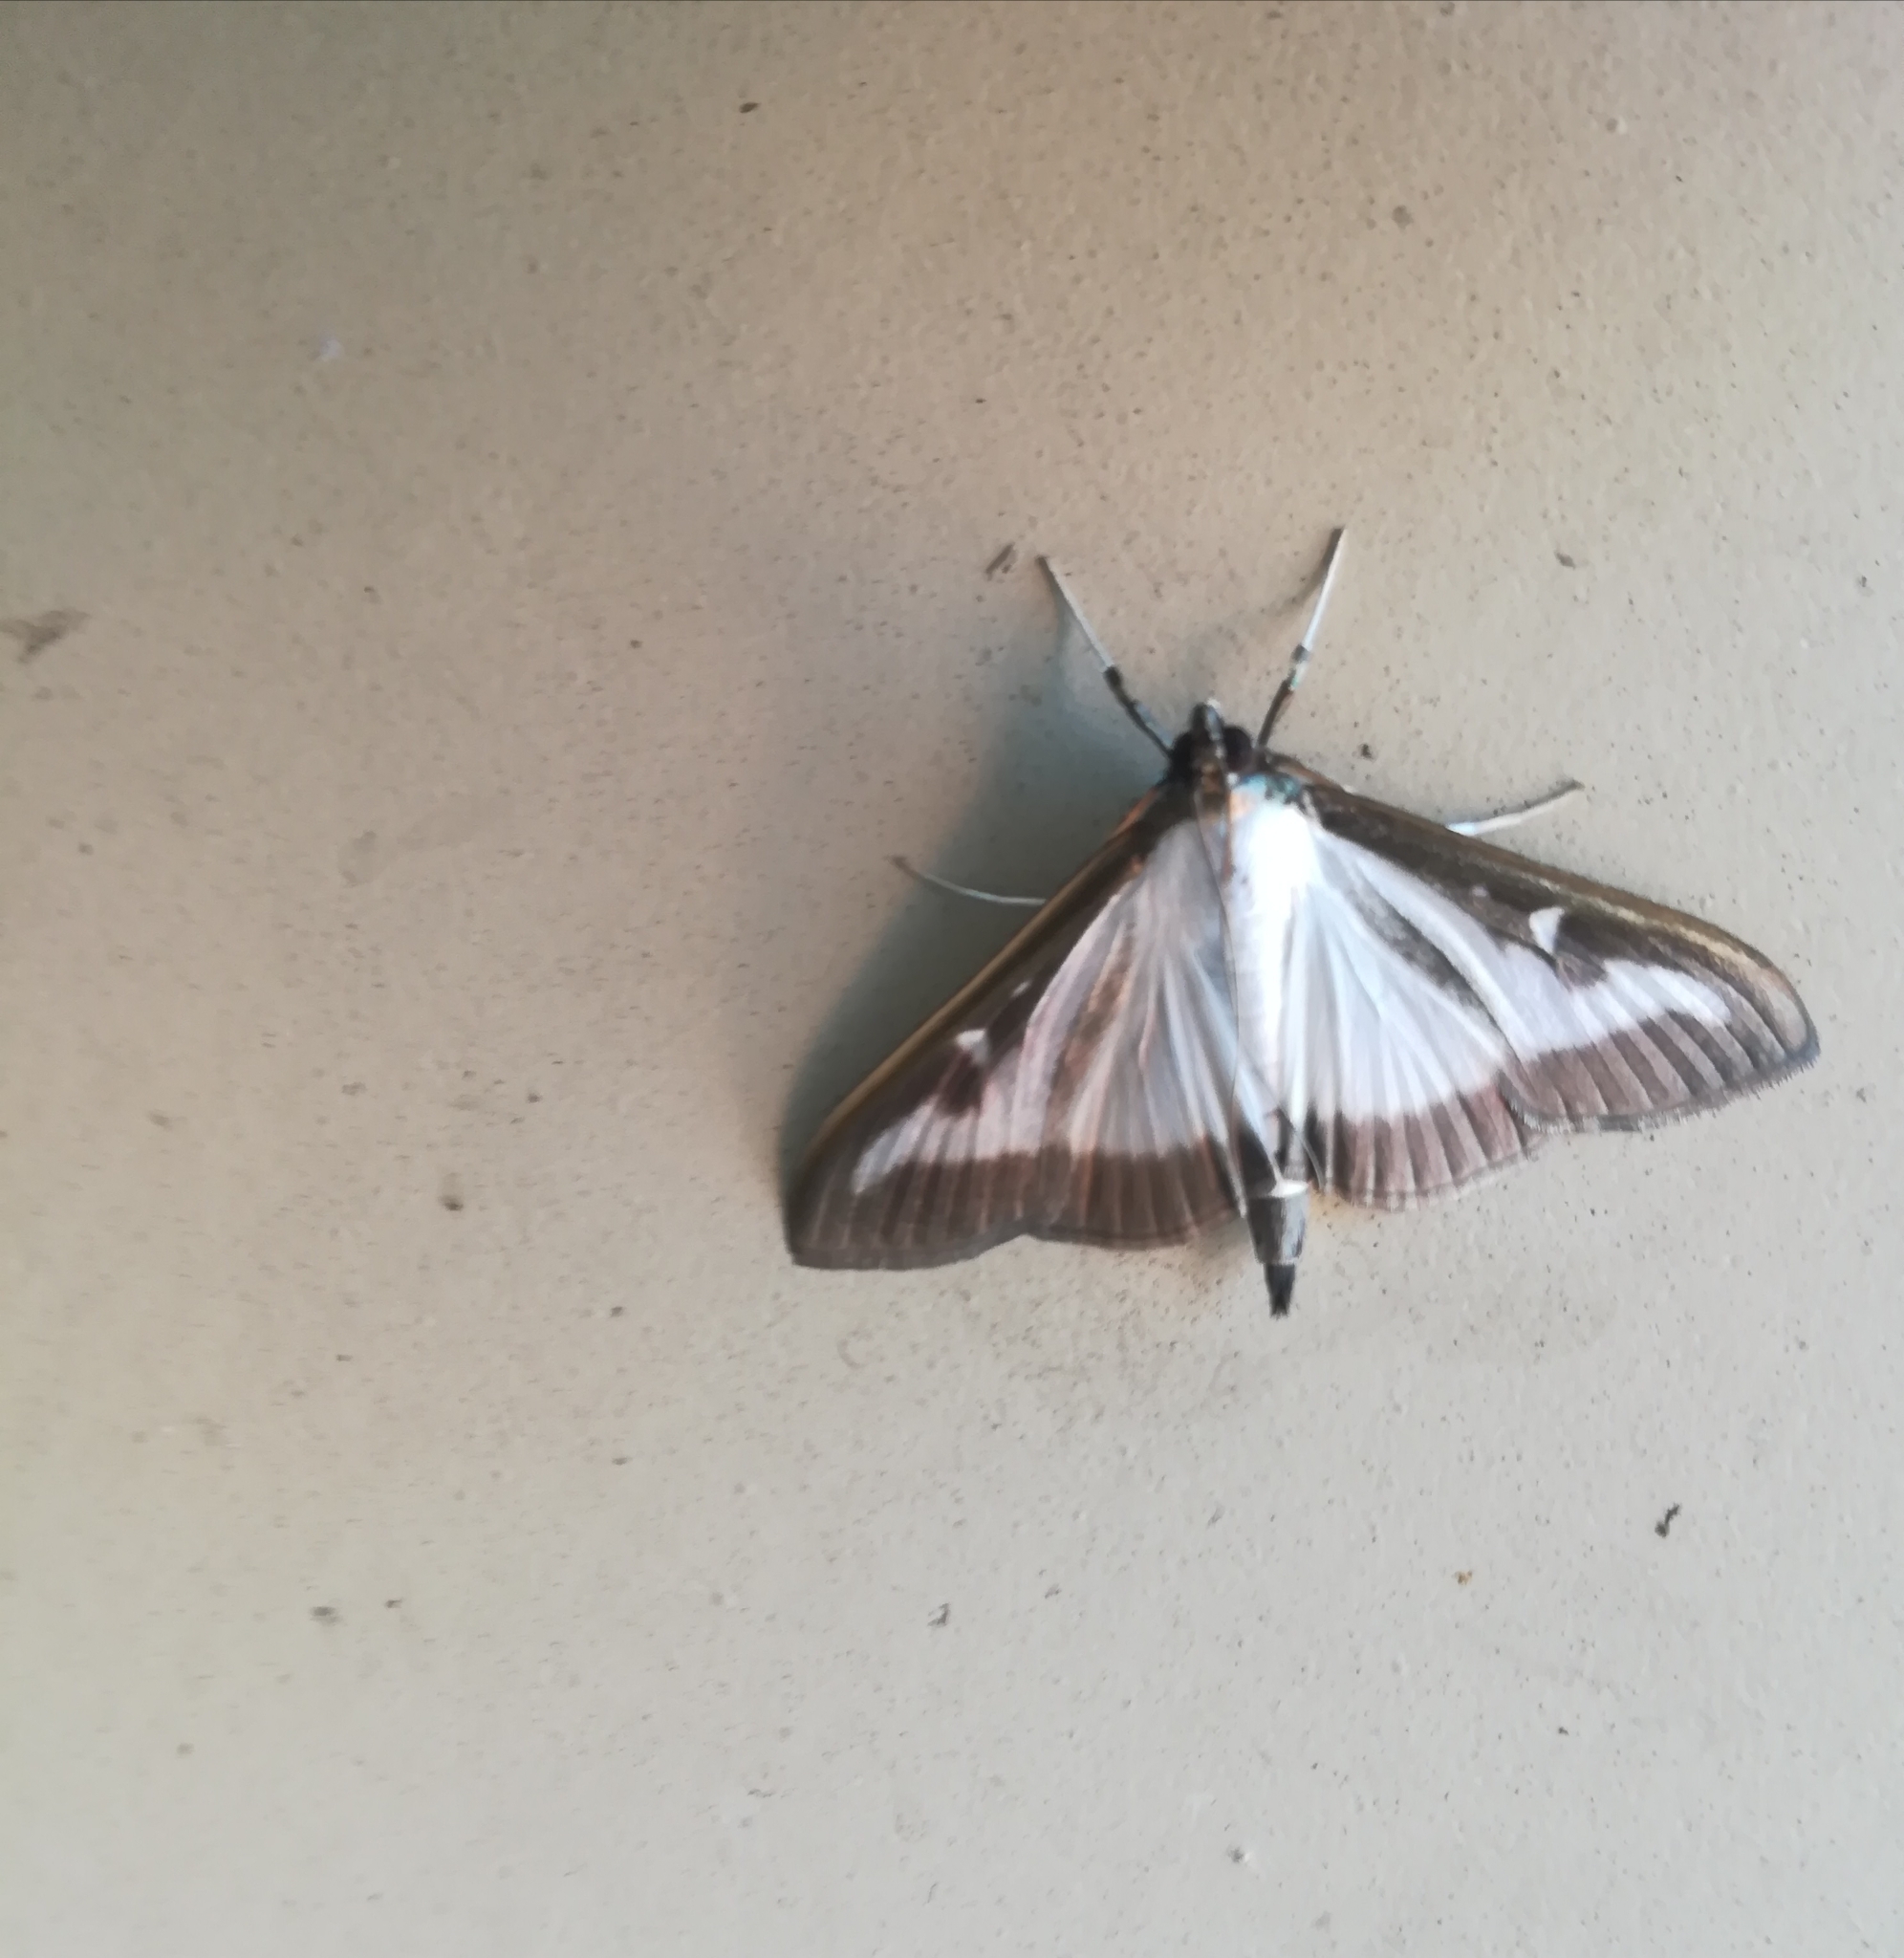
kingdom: Animalia
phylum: Arthropoda
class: Insecta
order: Lepidoptera
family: Crambidae
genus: Cydalima
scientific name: Cydalima perspectalis
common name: Box tree moth
